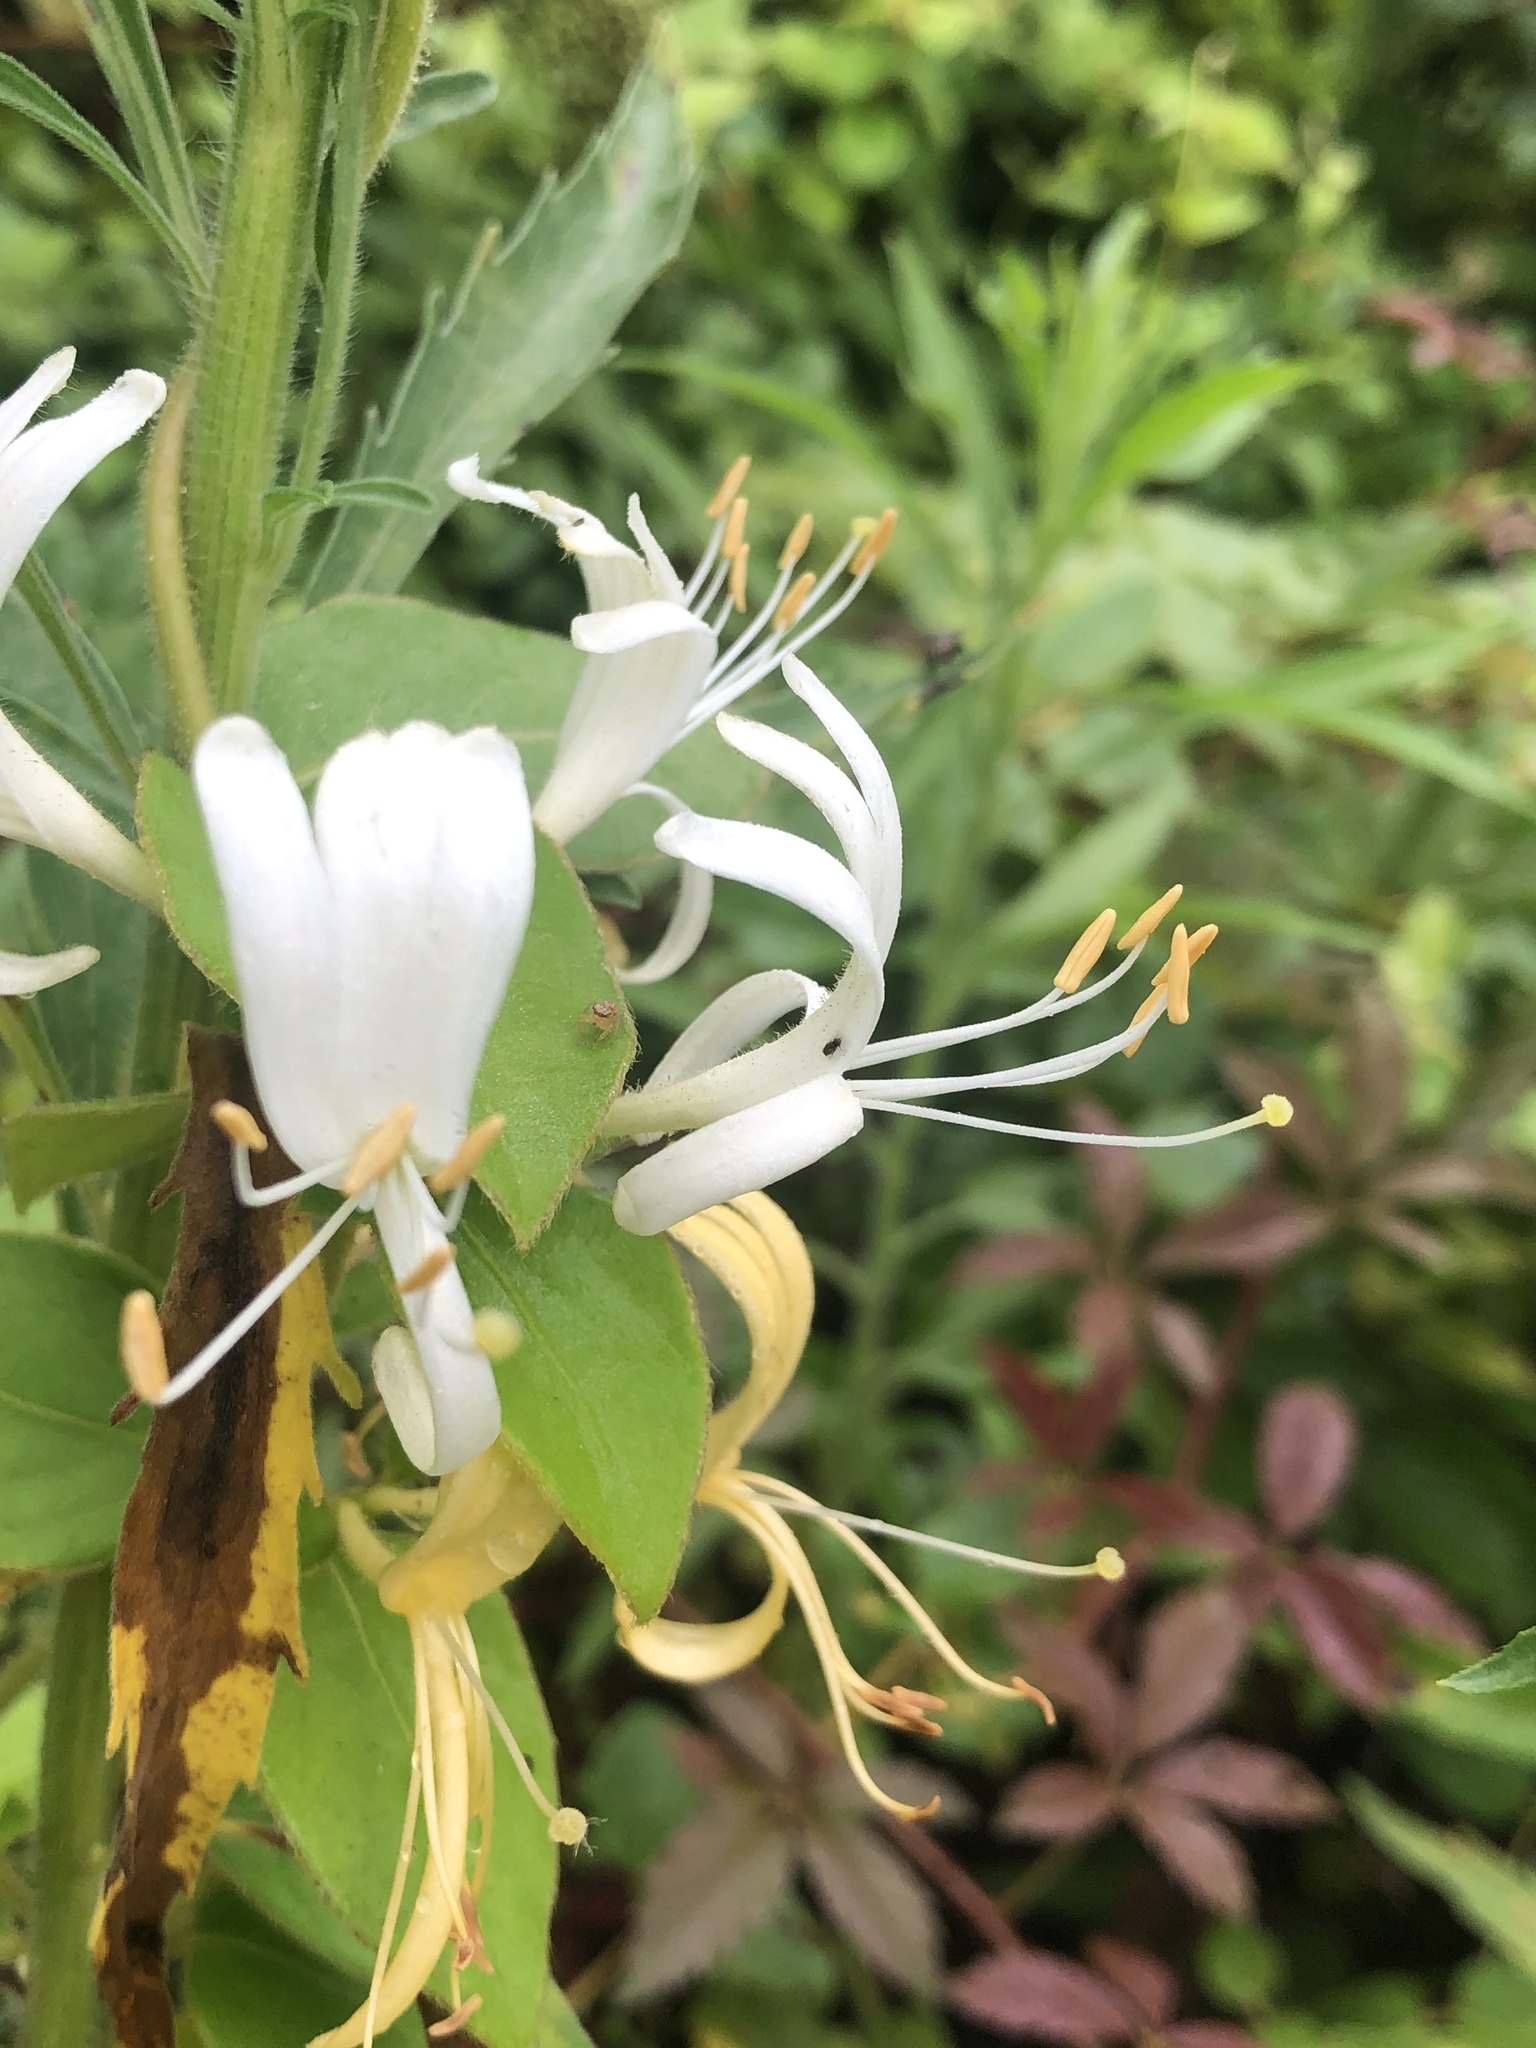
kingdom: Plantae
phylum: Tracheophyta
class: Magnoliopsida
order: Dipsacales
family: Caprifoliaceae
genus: Lonicera
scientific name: Lonicera japonica
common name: Japanese honeysuckle
